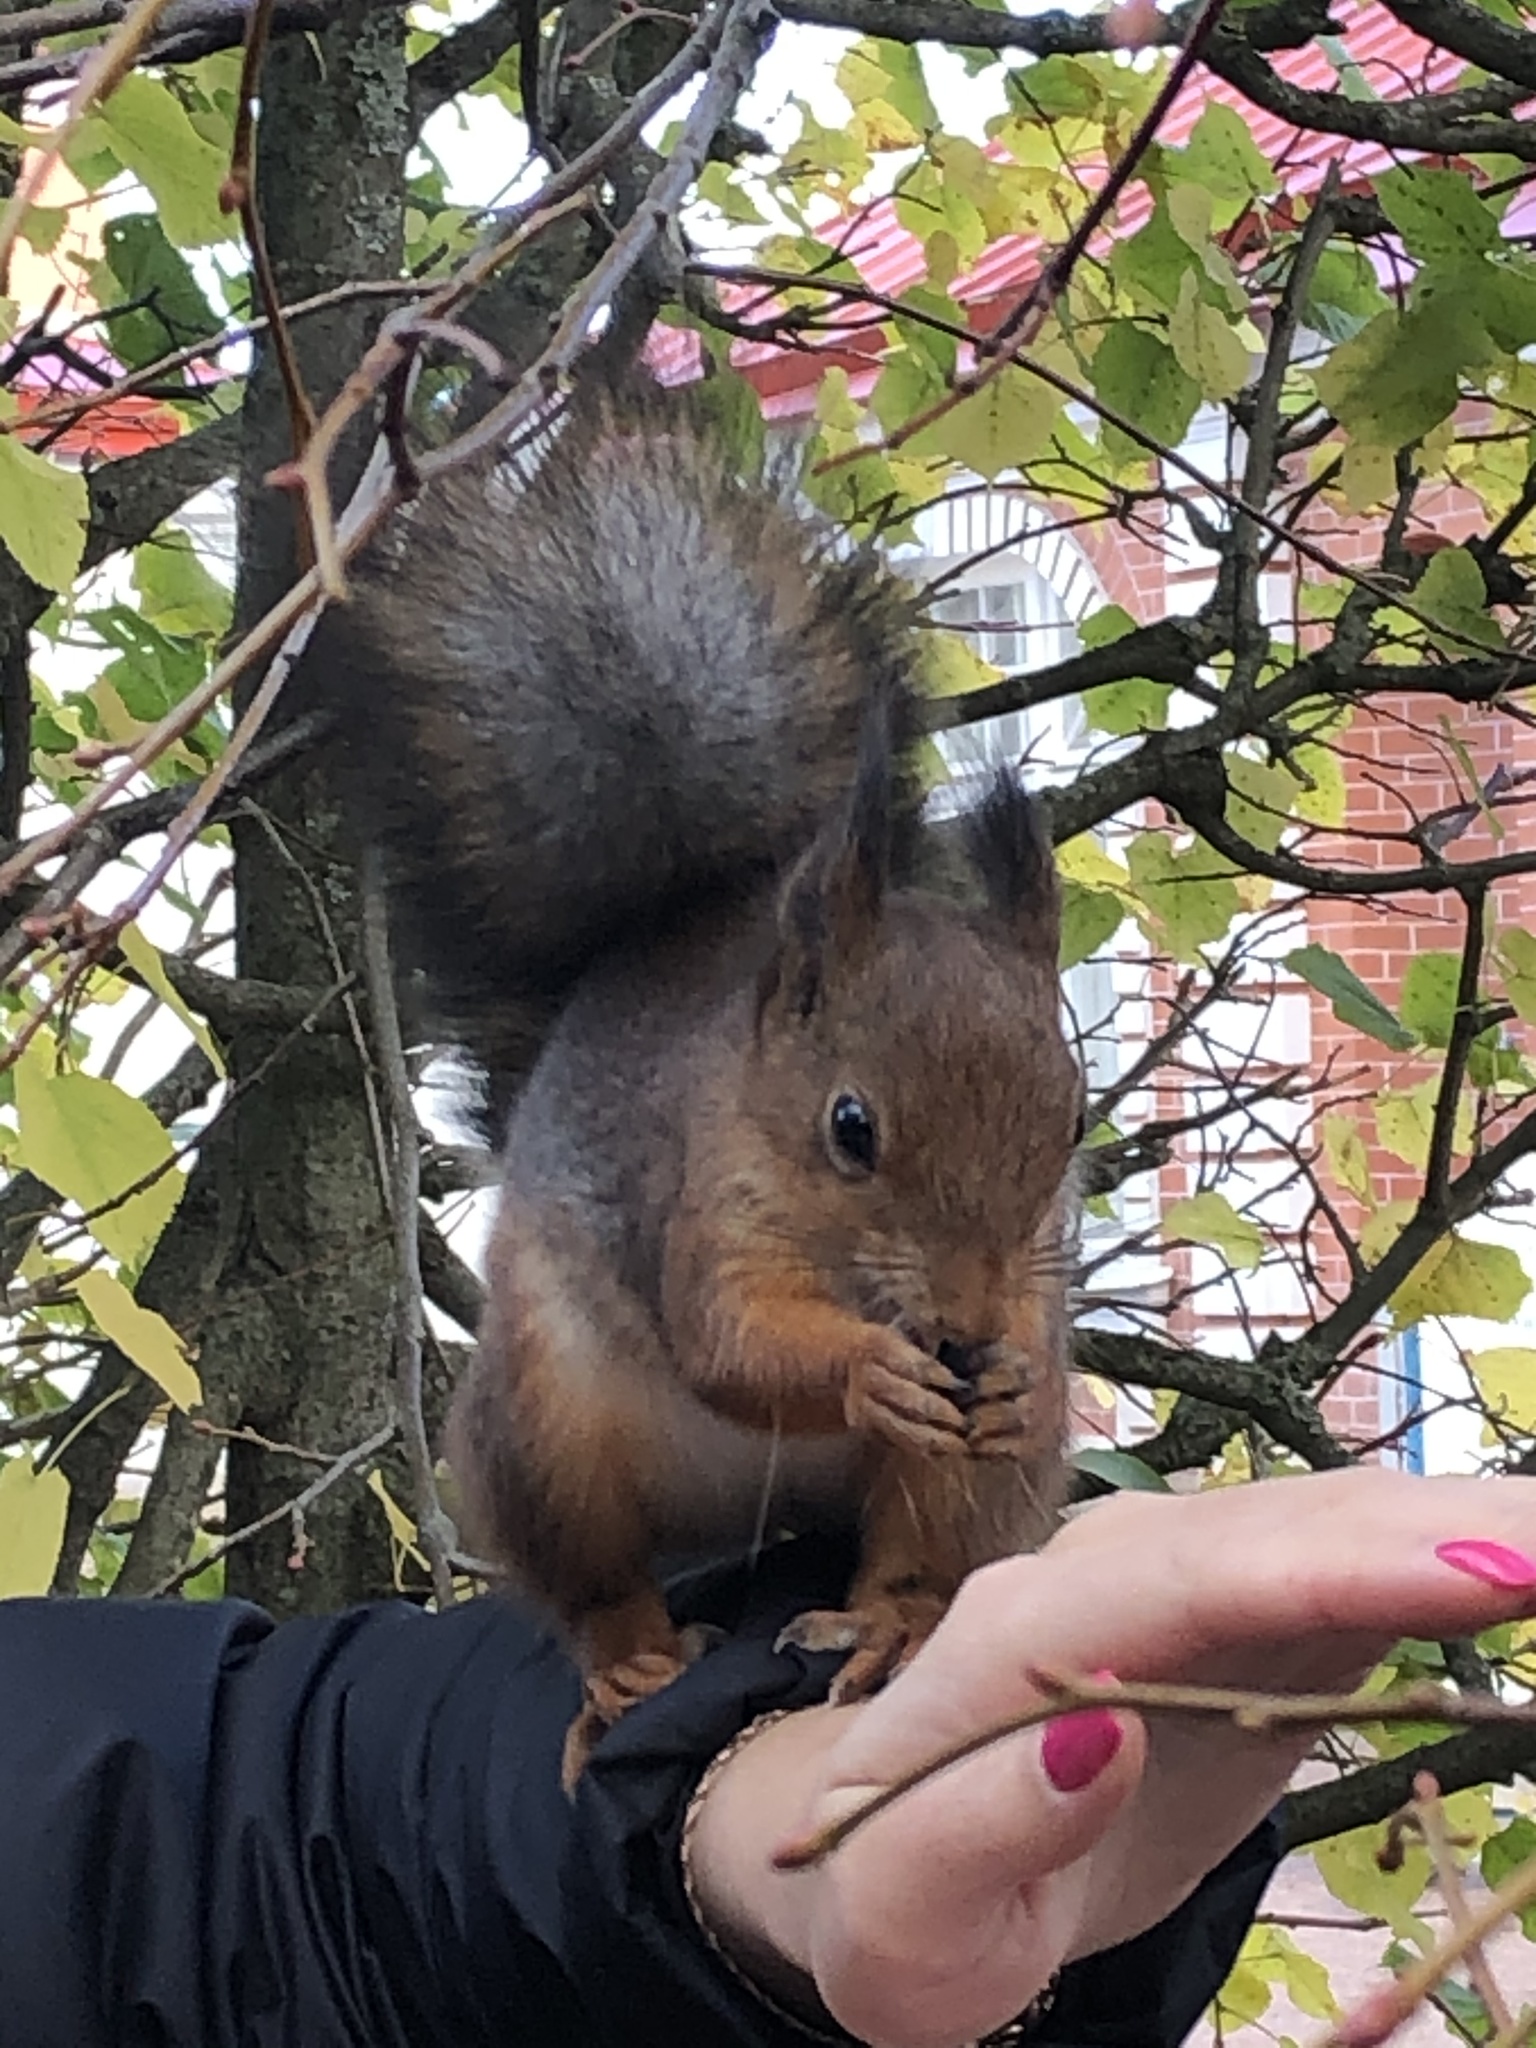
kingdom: Animalia
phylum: Chordata
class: Mammalia
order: Rodentia
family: Sciuridae
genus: Sciurus
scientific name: Sciurus vulgaris
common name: Eurasian red squirrel
